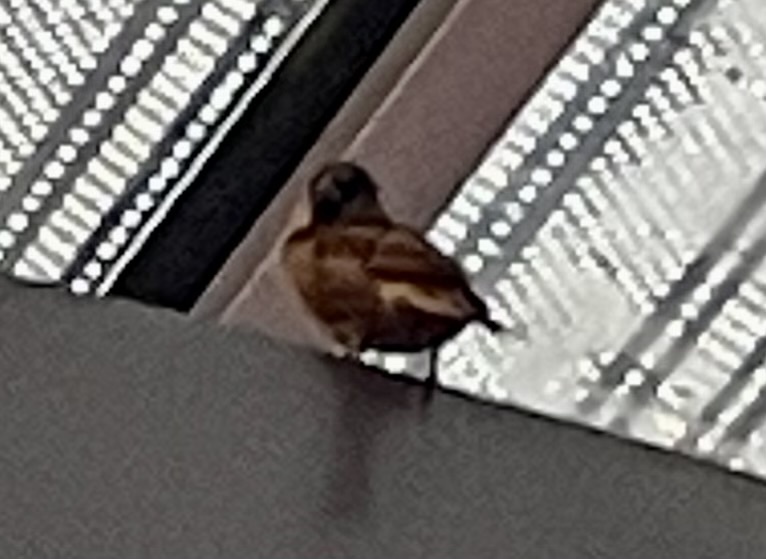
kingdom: Animalia
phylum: Chordata
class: Aves
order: Passeriformes
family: Passeridae
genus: Passer
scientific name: Passer domesticus
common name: House sparrow
